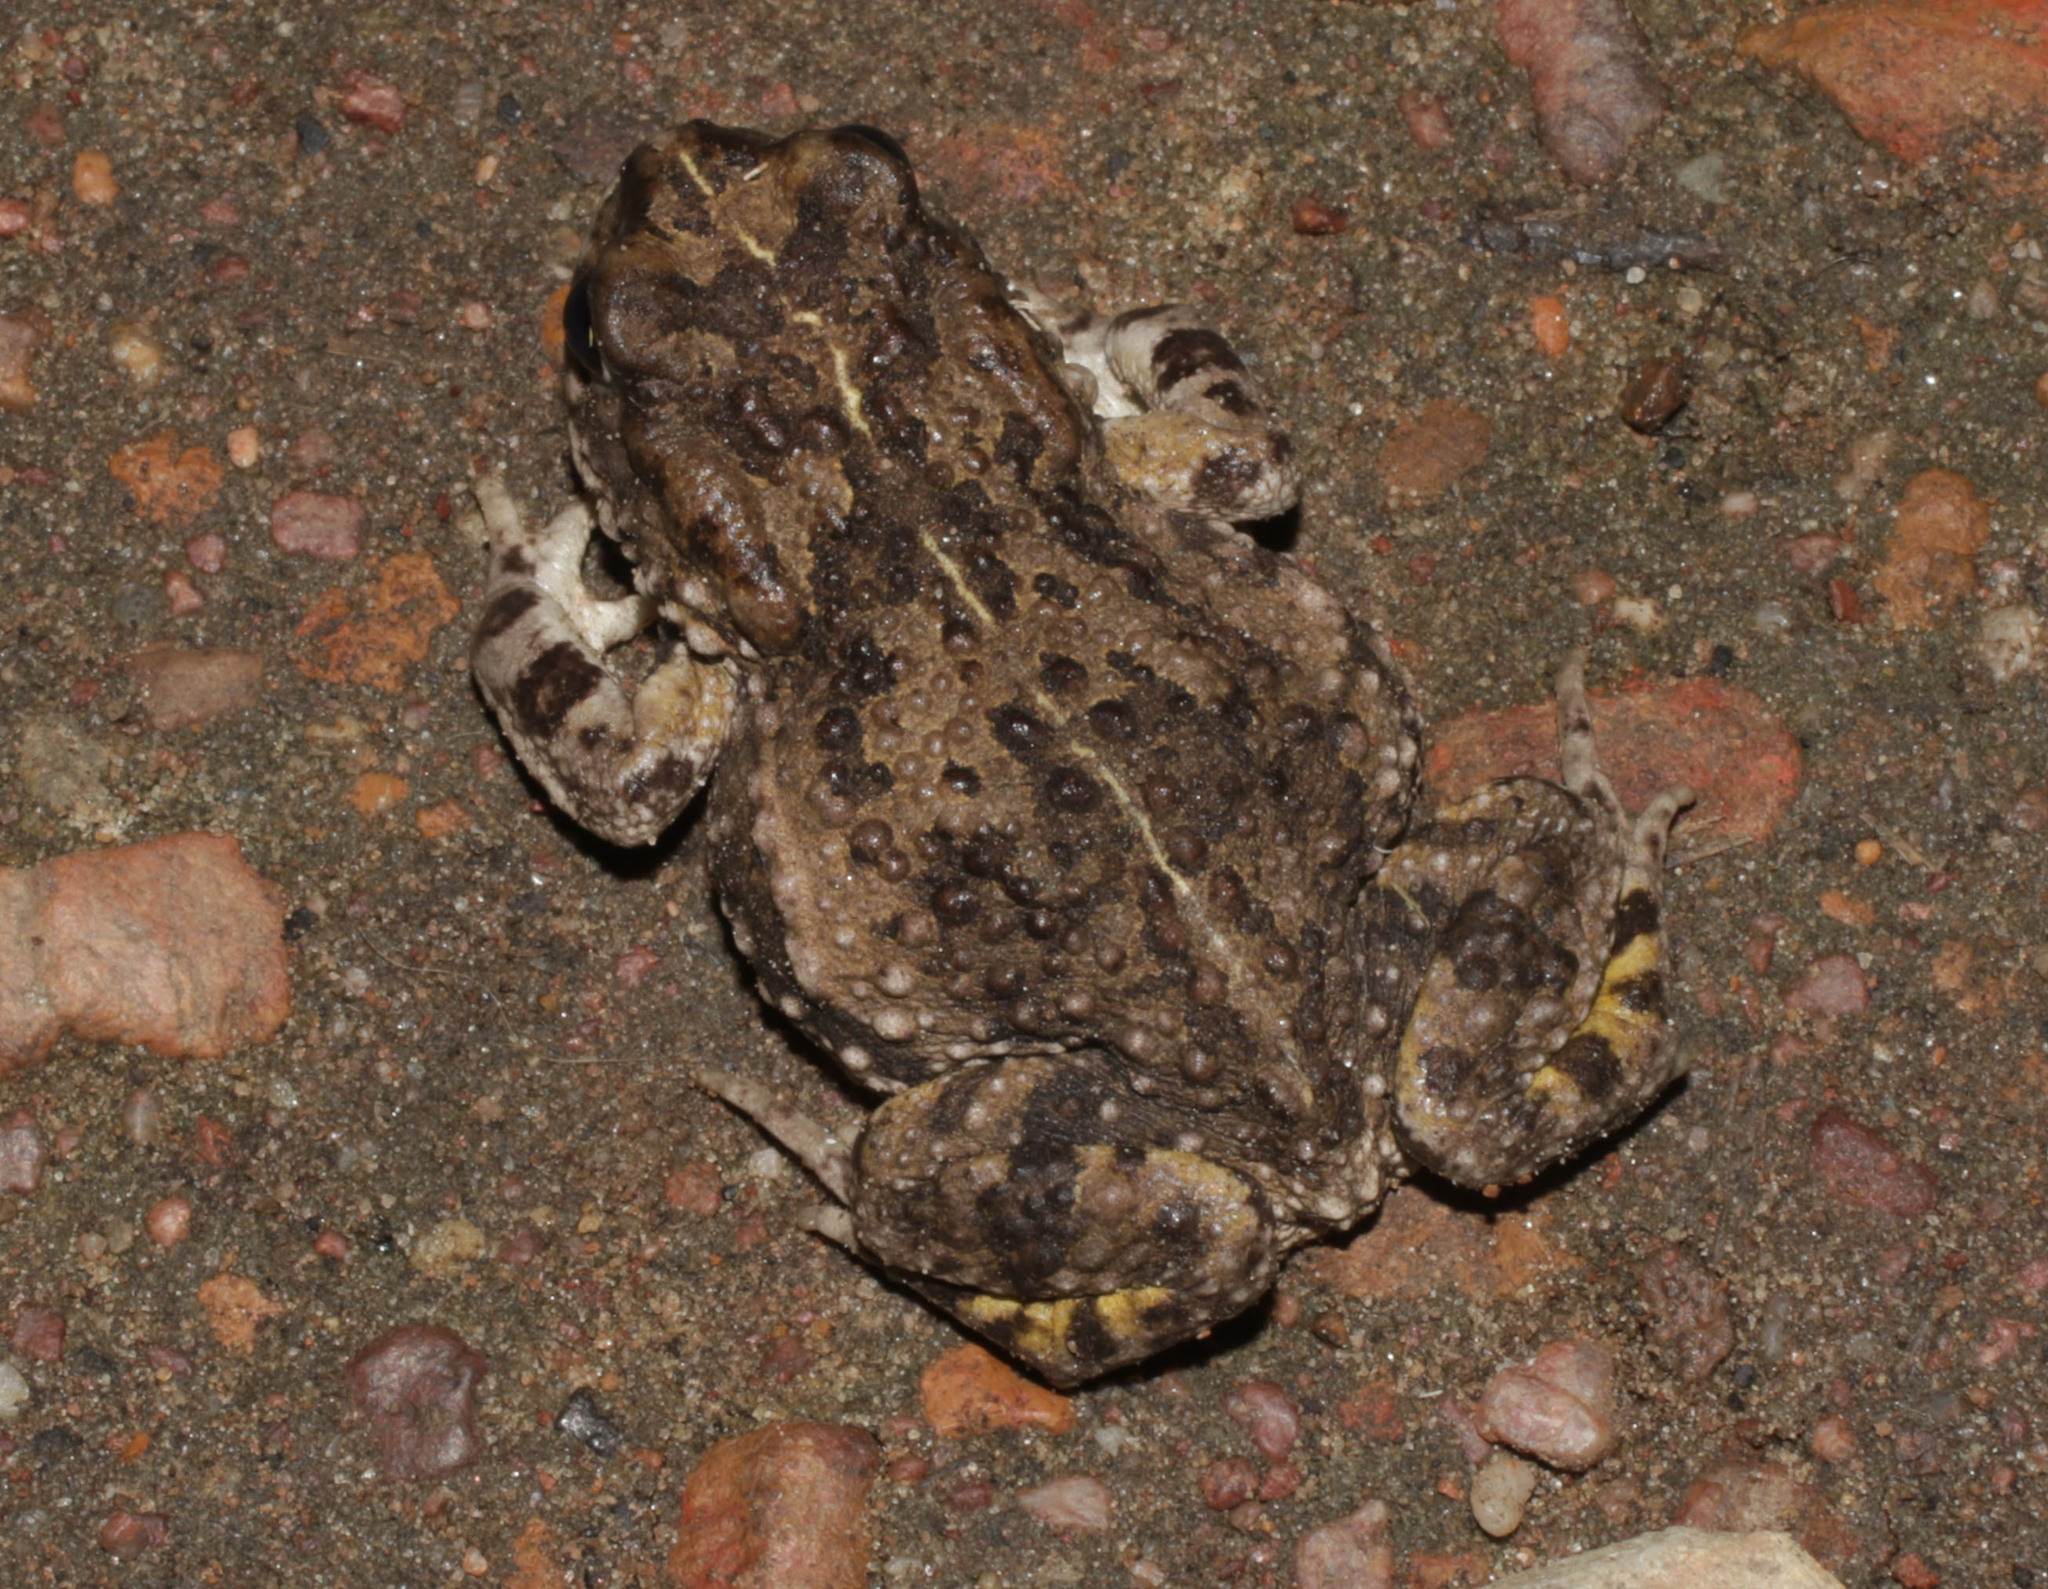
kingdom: Animalia
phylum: Chordata
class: Amphibia
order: Anura
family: Bufonidae
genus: Vandijkophrynus
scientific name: Vandijkophrynus angusticeps
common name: Sand toad
